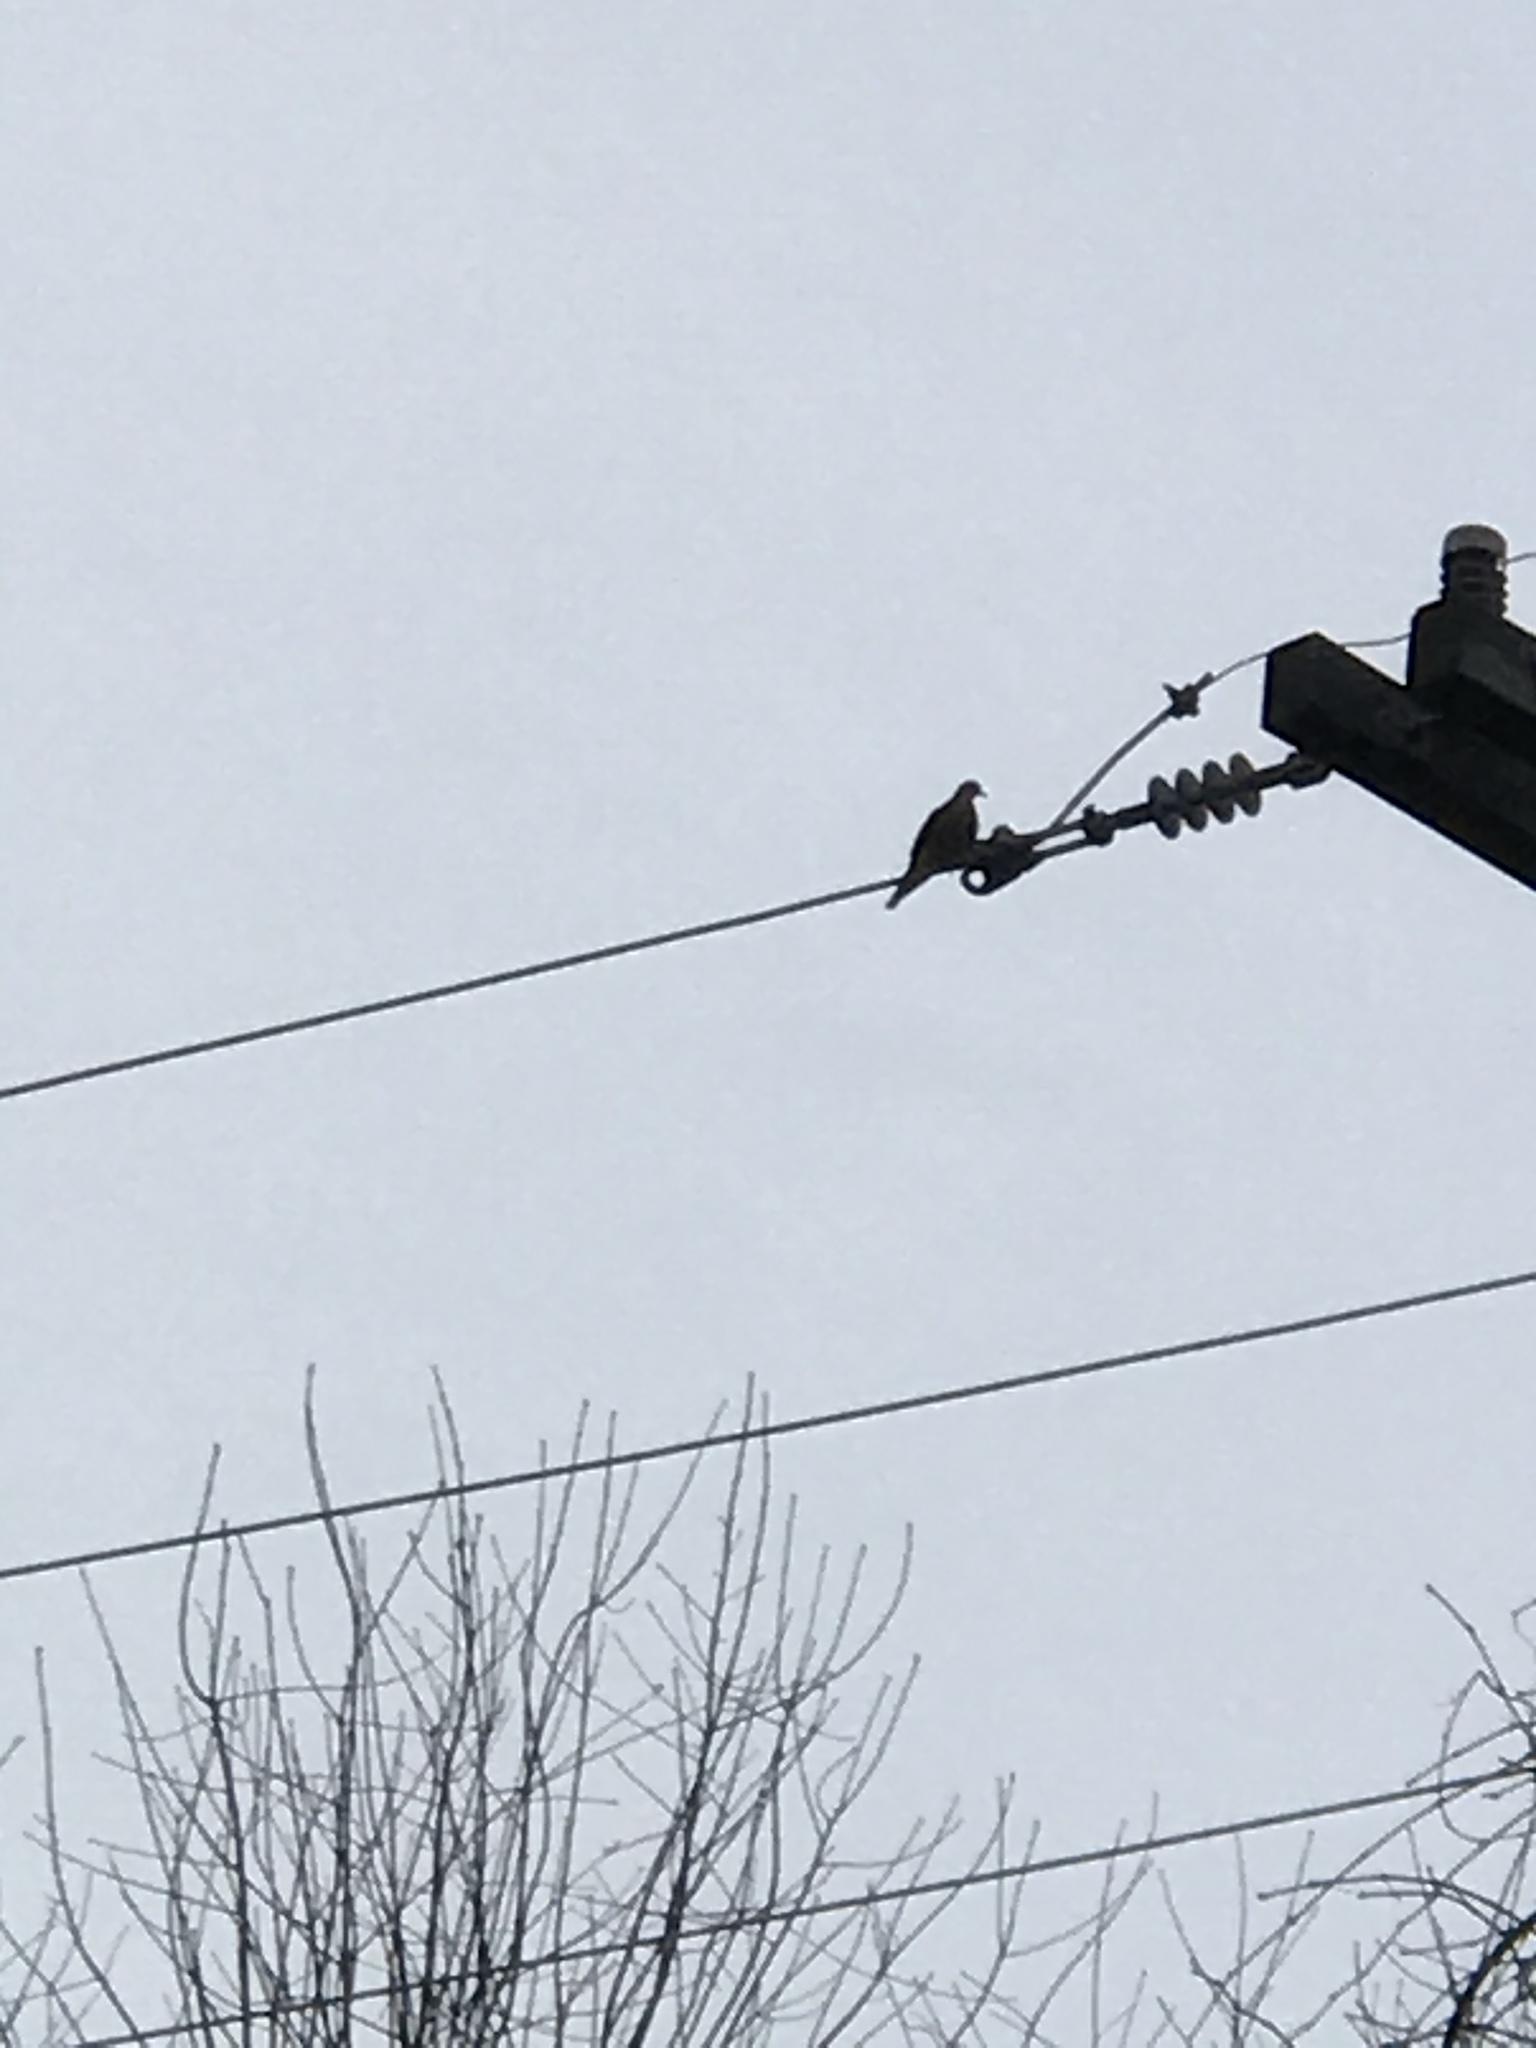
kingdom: Animalia
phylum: Chordata
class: Aves
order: Columbiformes
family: Columbidae
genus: Zenaida
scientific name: Zenaida macroura
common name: Mourning dove
